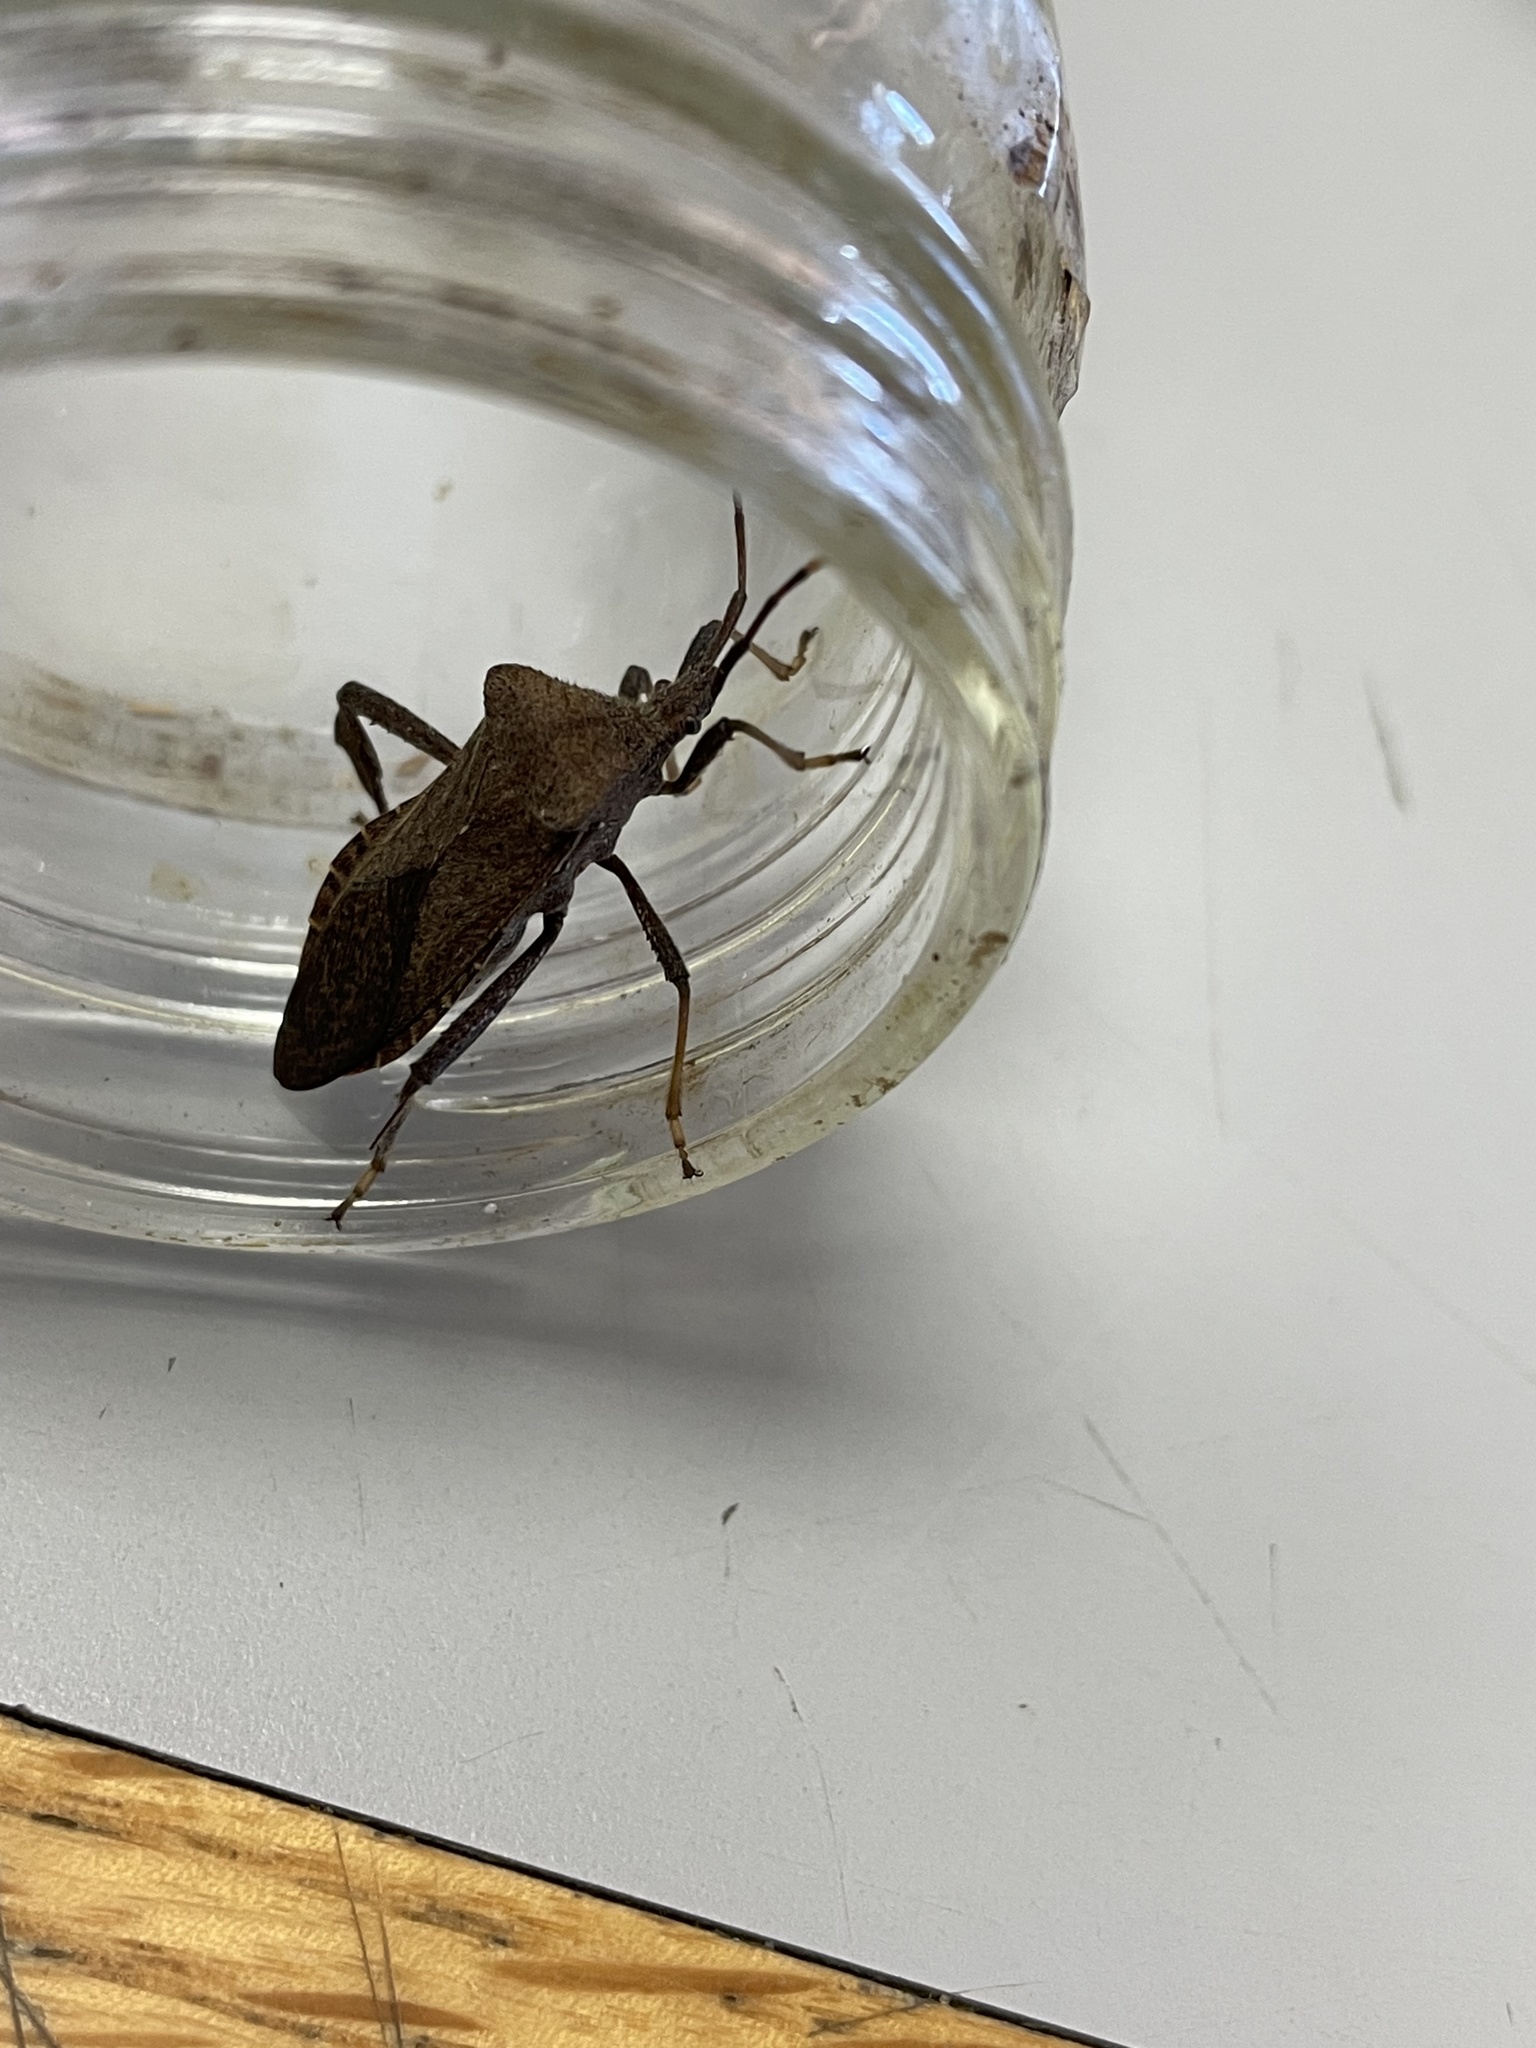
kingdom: Animalia
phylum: Arthropoda
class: Insecta
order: Hemiptera
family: Coreidae
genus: Acanthocephala
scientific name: Acanthocephala terminalis
